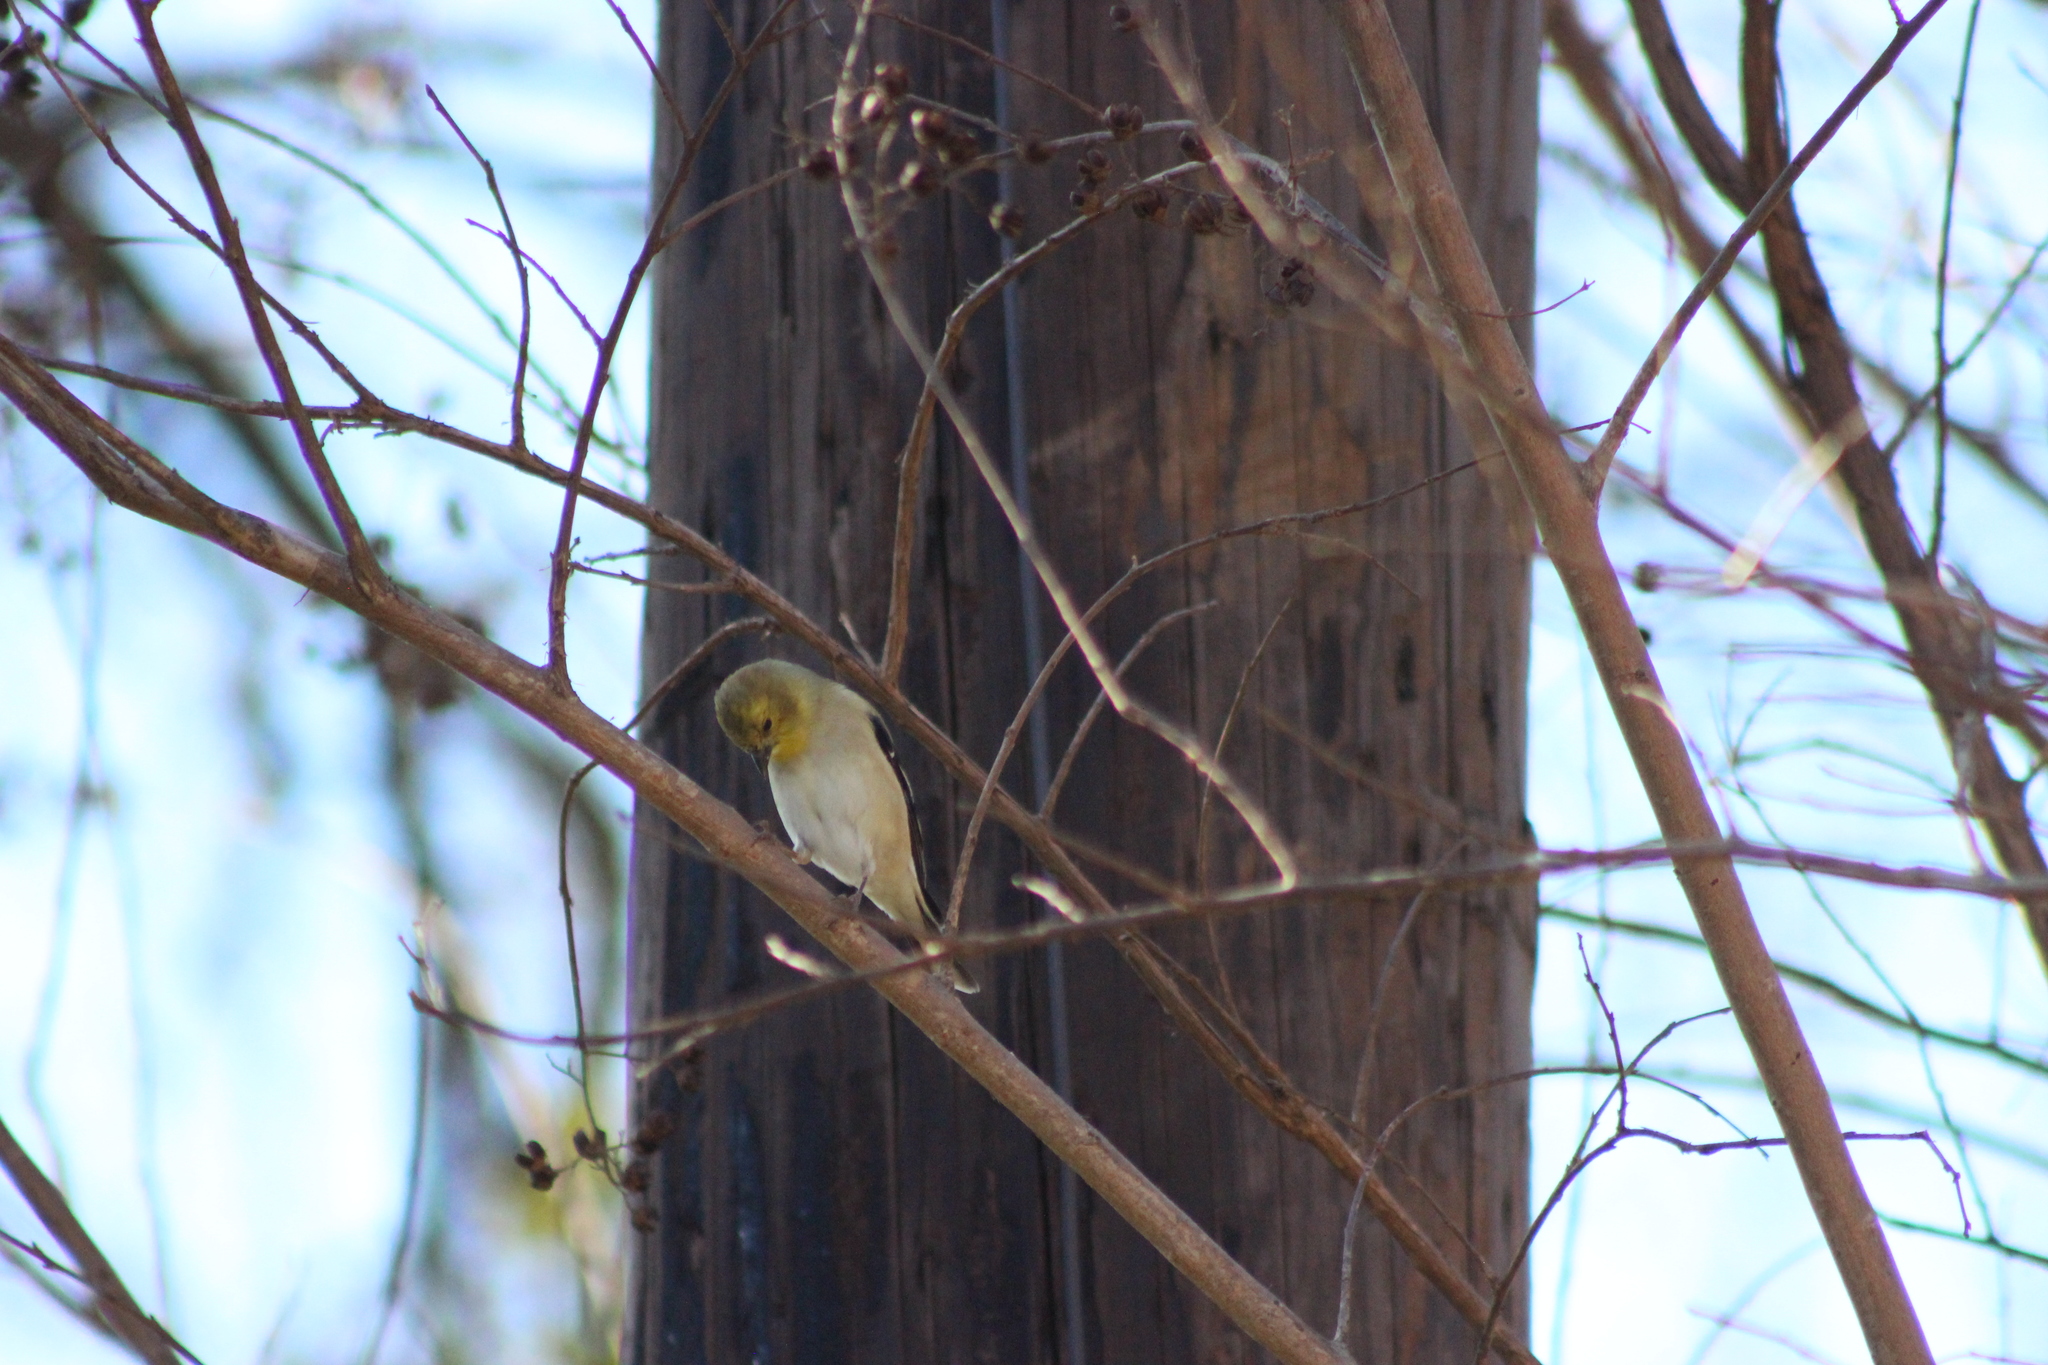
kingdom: Animalia
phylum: Chordata
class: Aves
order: Passeriformes
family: Fringillidae
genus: Spinus
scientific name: Spinus tristis
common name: American goldfinch
